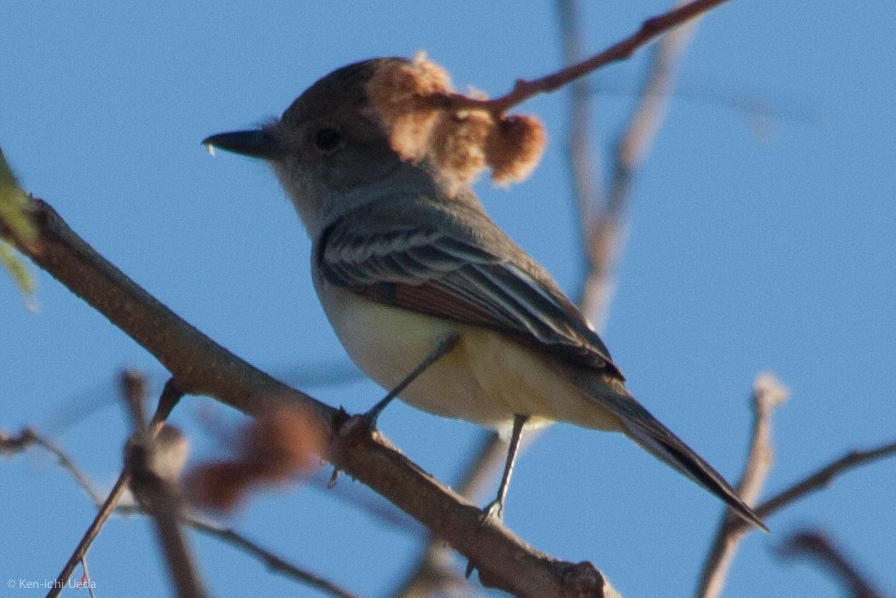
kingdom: Animalia
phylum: Chordata
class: Aves
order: Passeriformes
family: Tyrannidae
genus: Myiarchus
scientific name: Myiarchus cinerascens
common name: Ash-throated flycatcher
